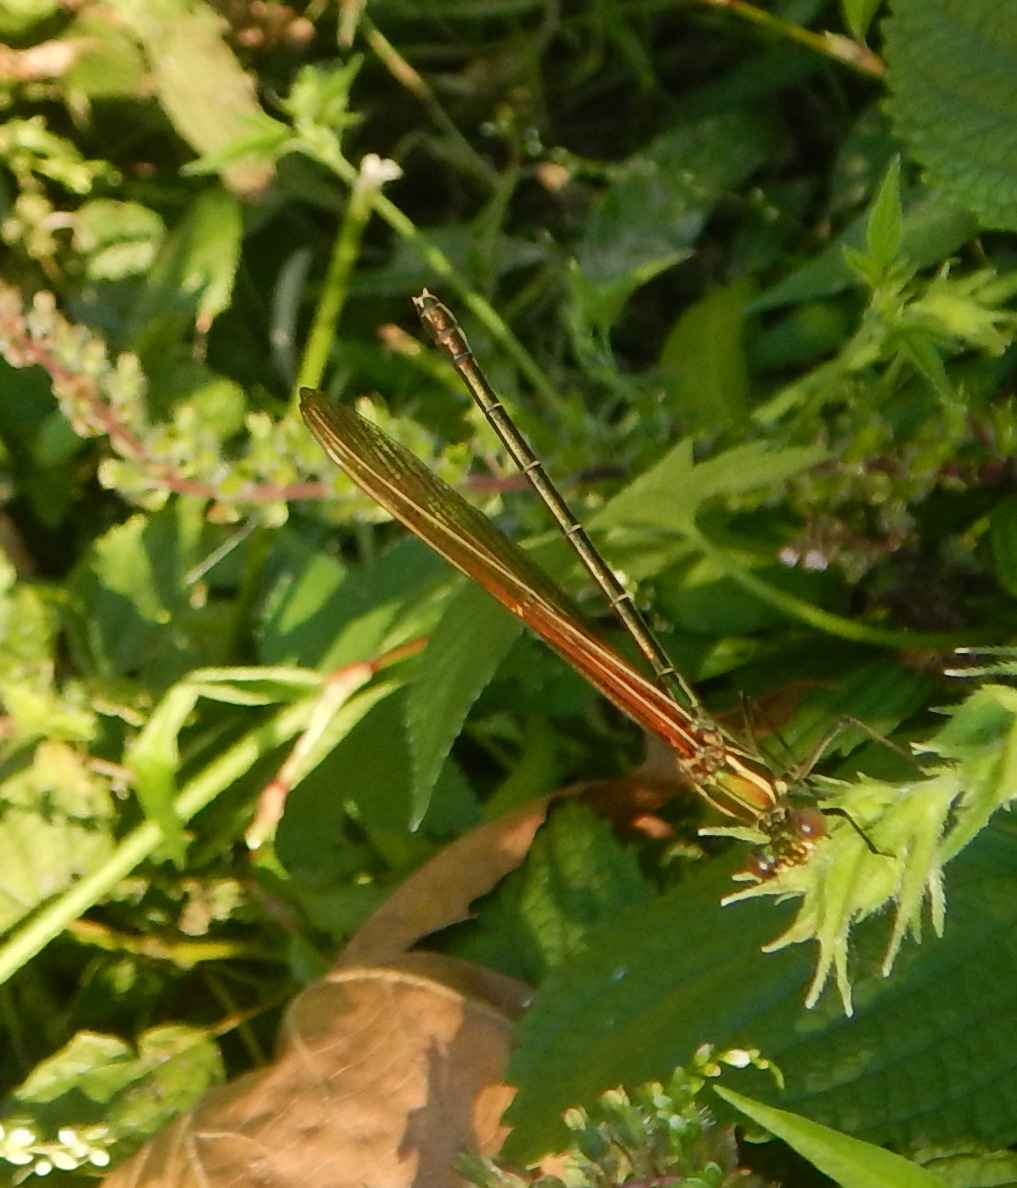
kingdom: Animalia
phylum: Arthropoda
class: Insecta
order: Odonata
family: Calopterygidae
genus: Hetaerina
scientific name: Hetaerina americana
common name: American rubyspot
